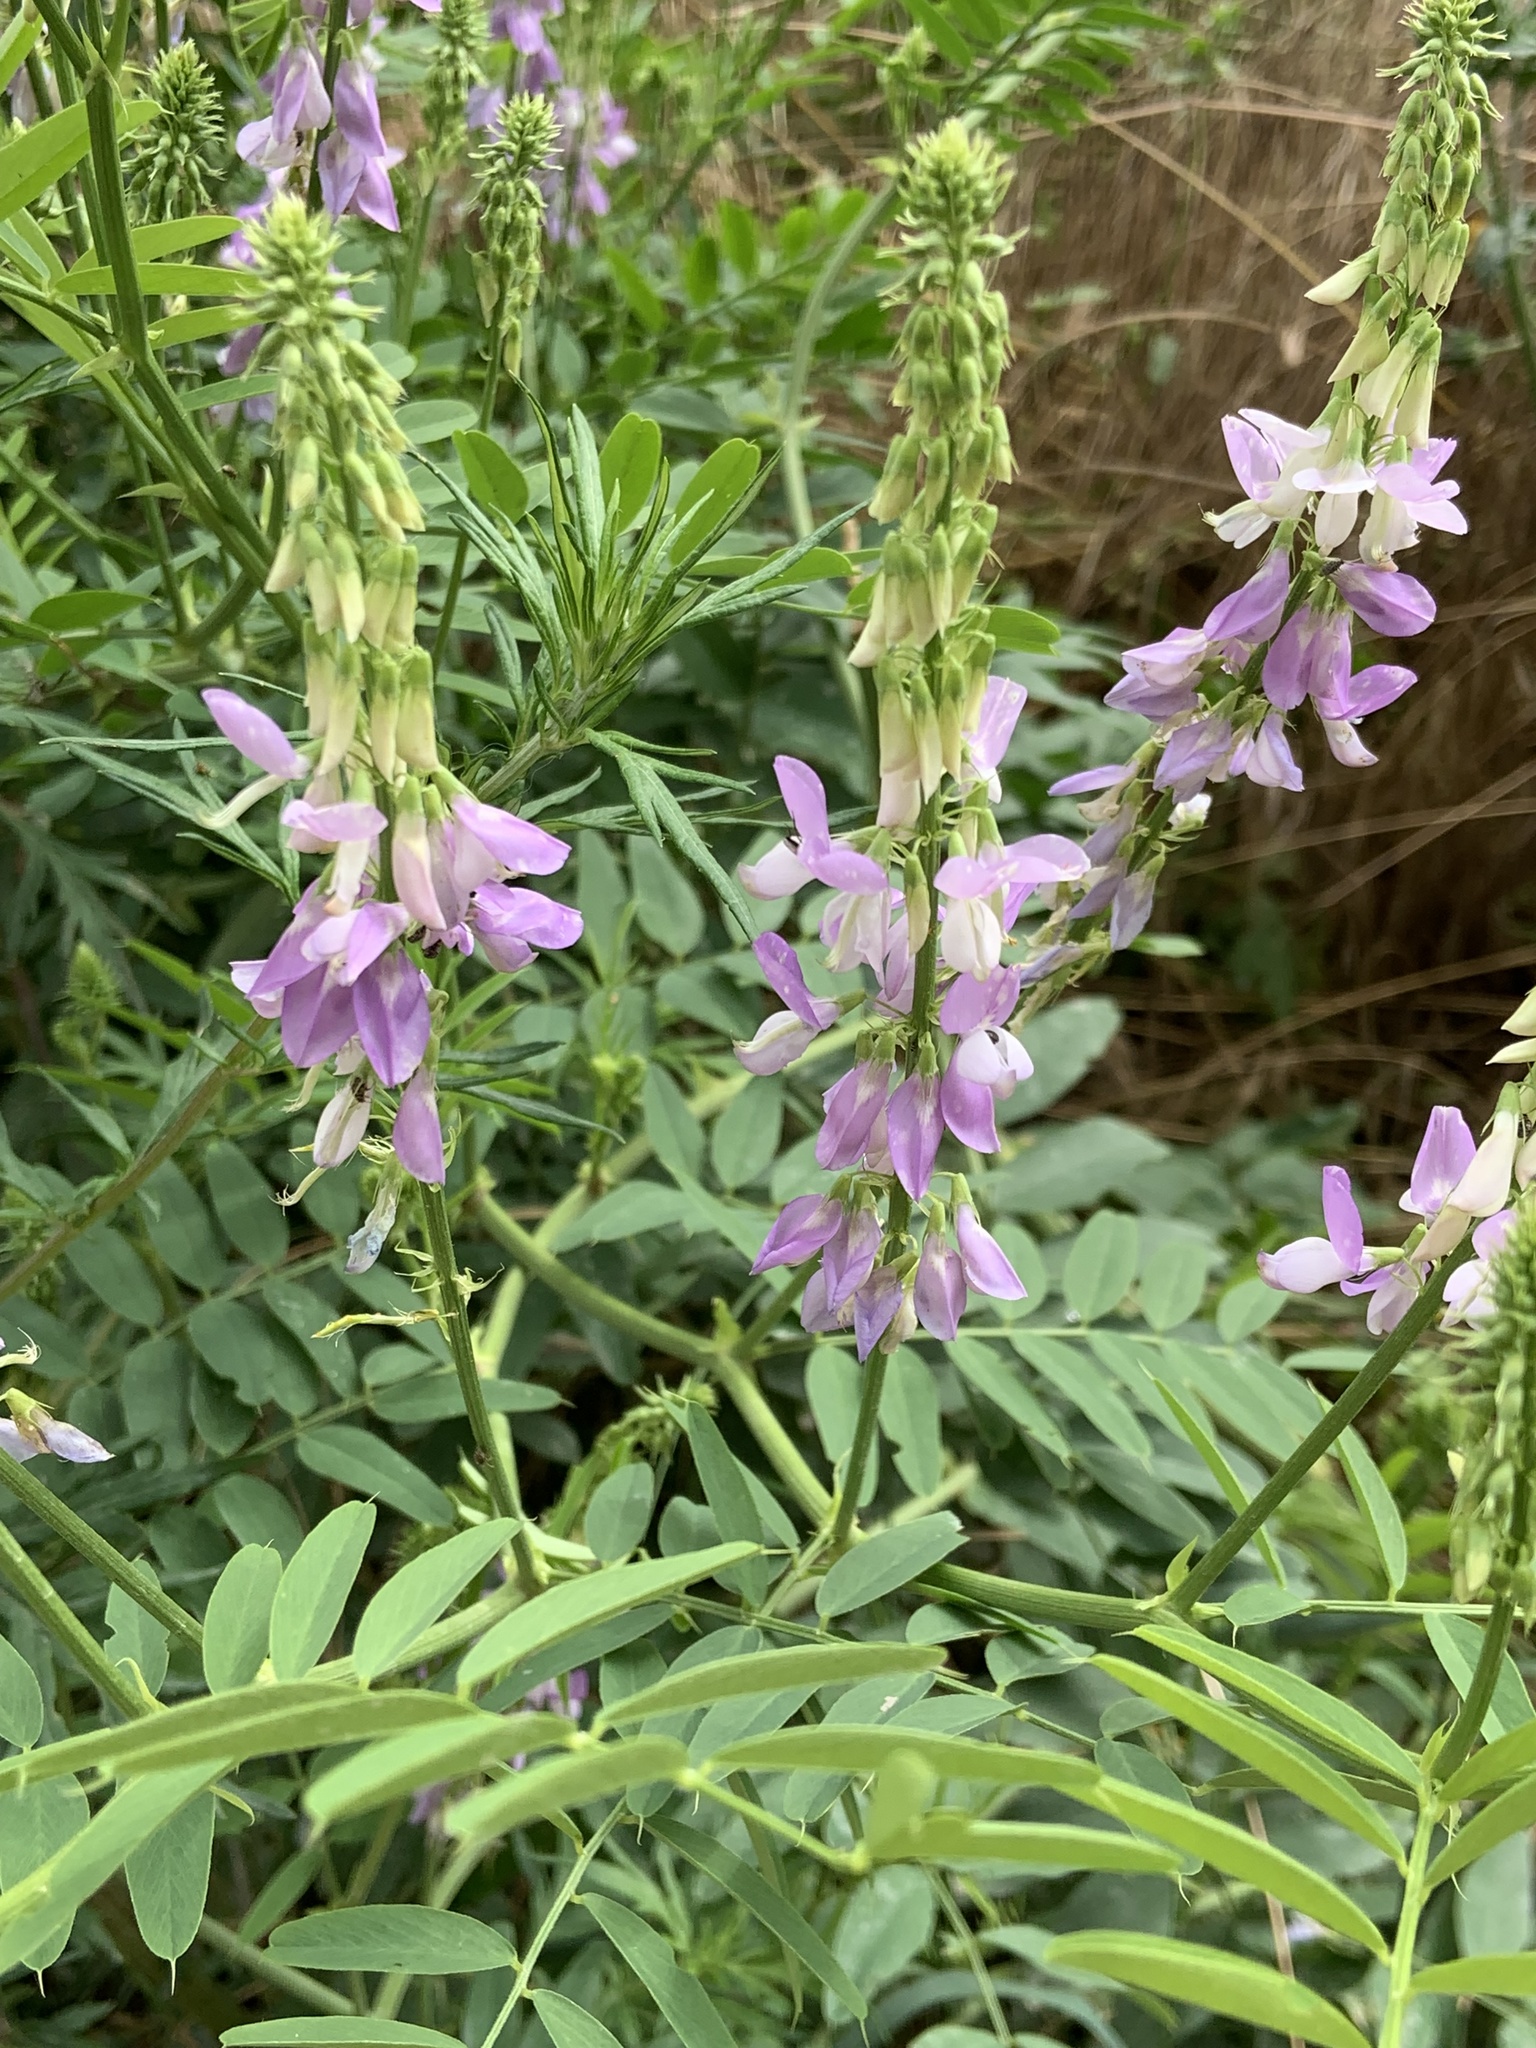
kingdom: Plantae
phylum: Tracheophyta
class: Magnoliopsida
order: Fabales
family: Fabaceae
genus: Galega
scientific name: Galega officinalis
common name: Goat's-rue
